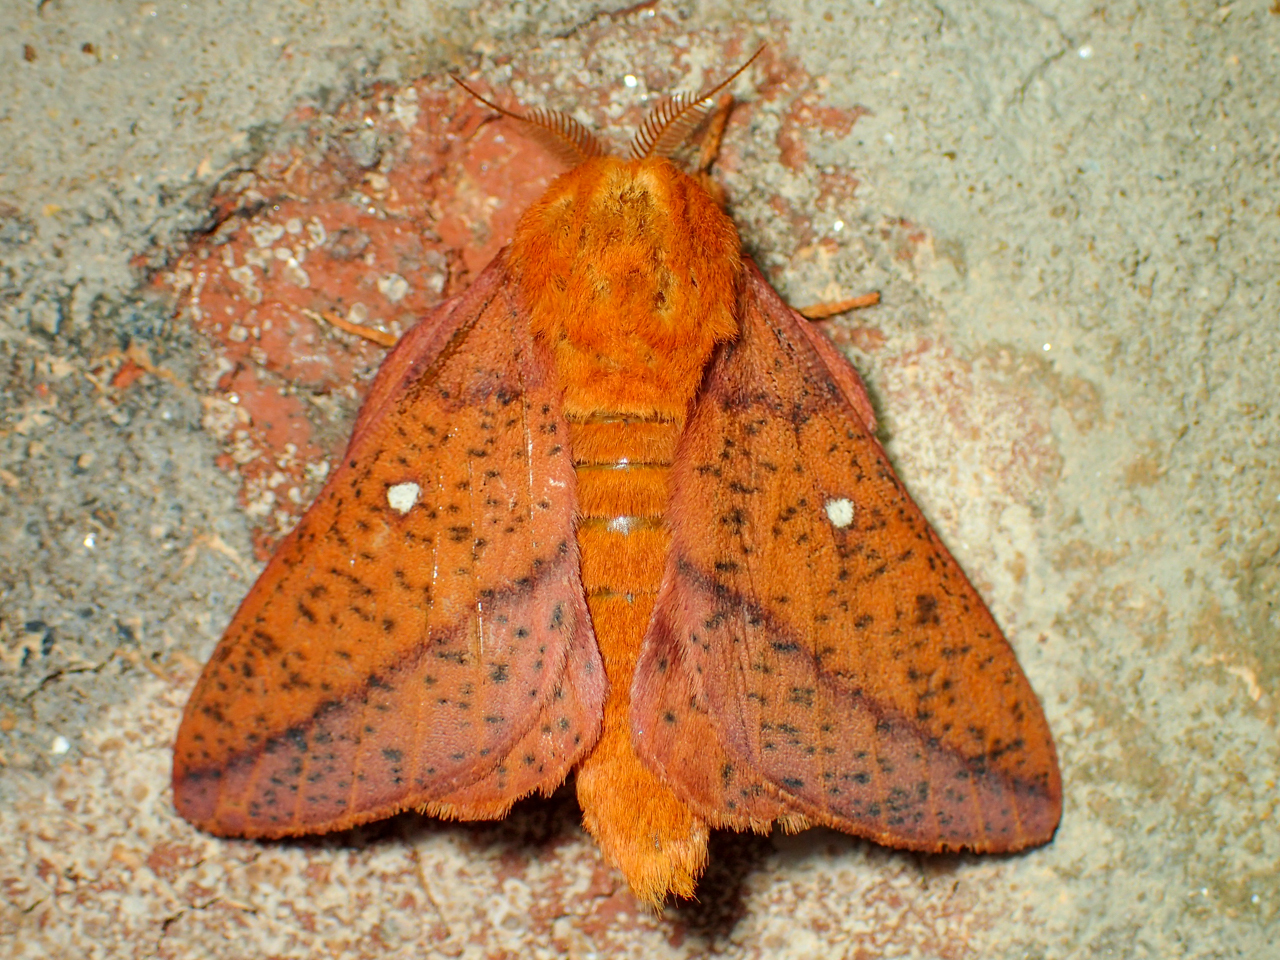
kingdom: Animalia
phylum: Arthropoda
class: Insecta
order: Lepidoptera
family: Saturniidae
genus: Anisota
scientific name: Anisota stigma
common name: Spiny oakworm moth
